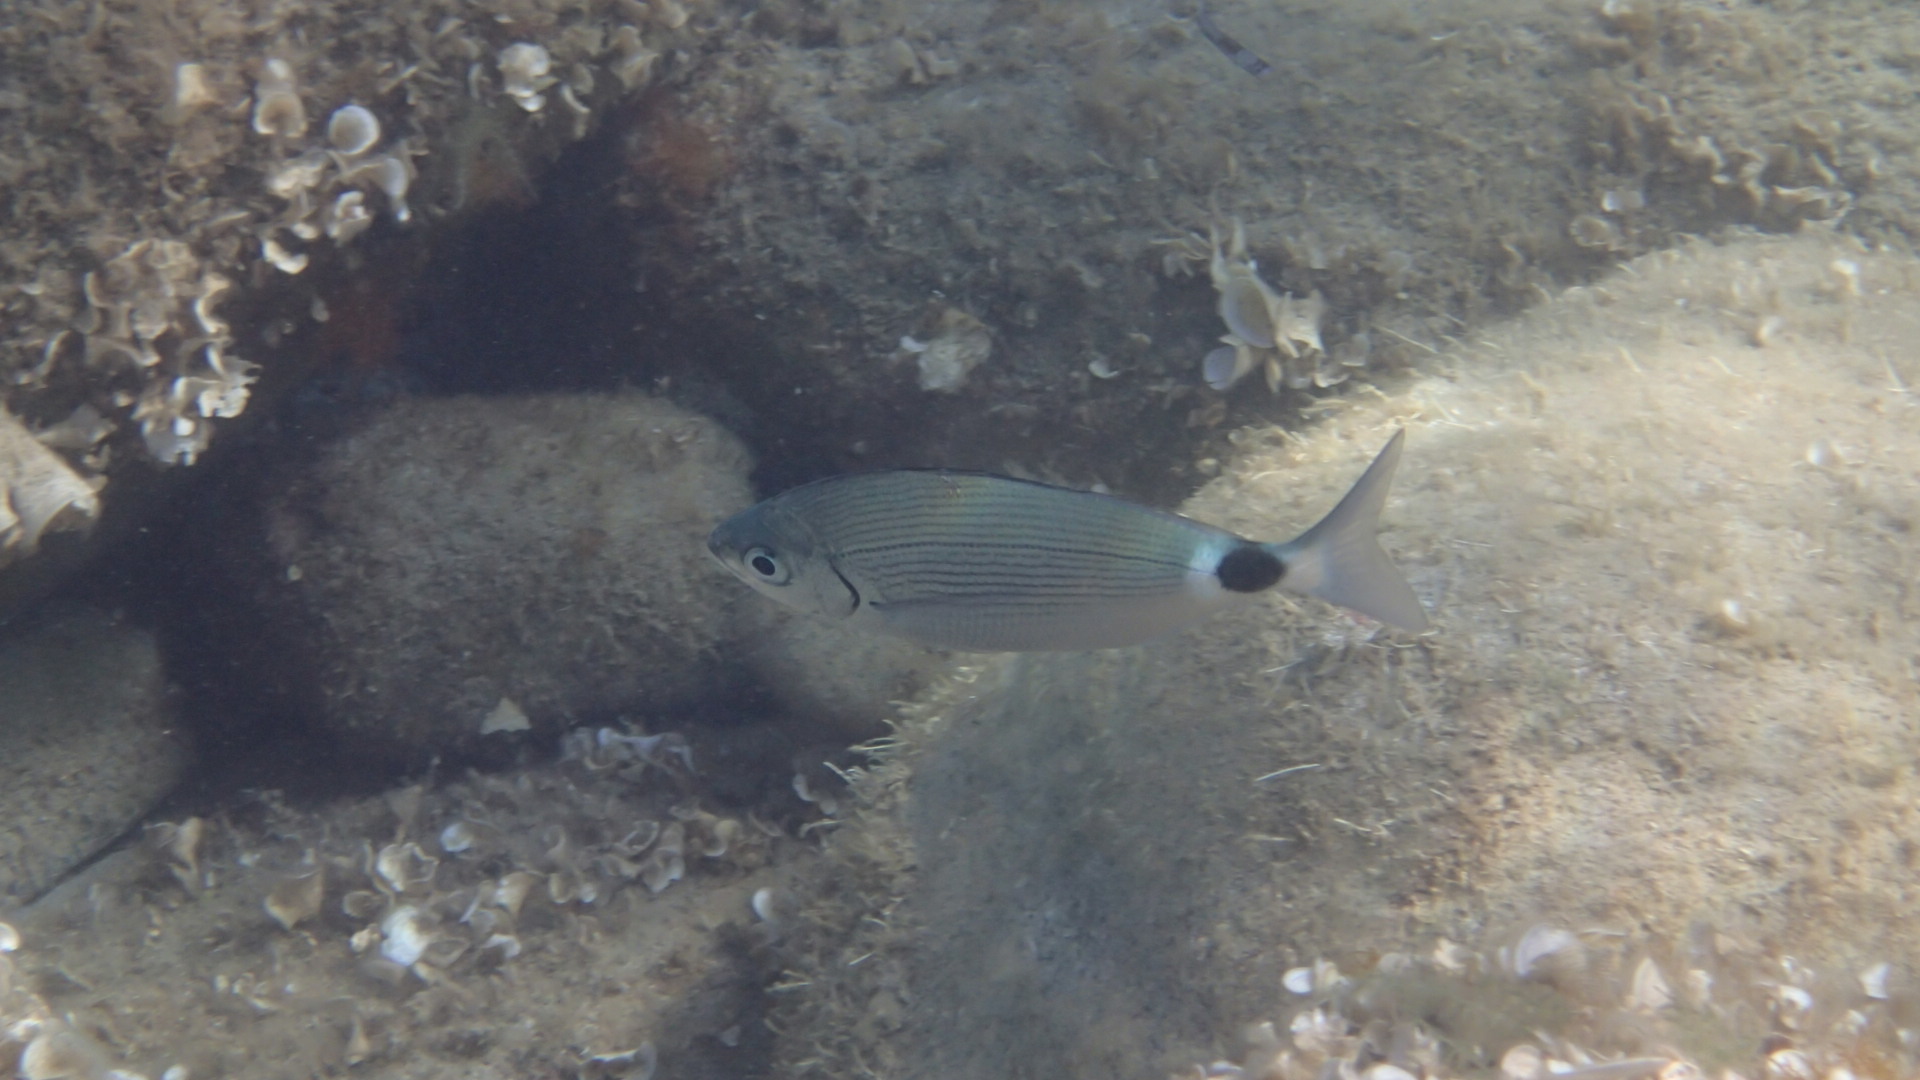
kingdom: Animalia
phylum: Chordata
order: Perciformes
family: Sparidae
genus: Oblada
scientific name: Oblada melanura
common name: Saddled seabream
